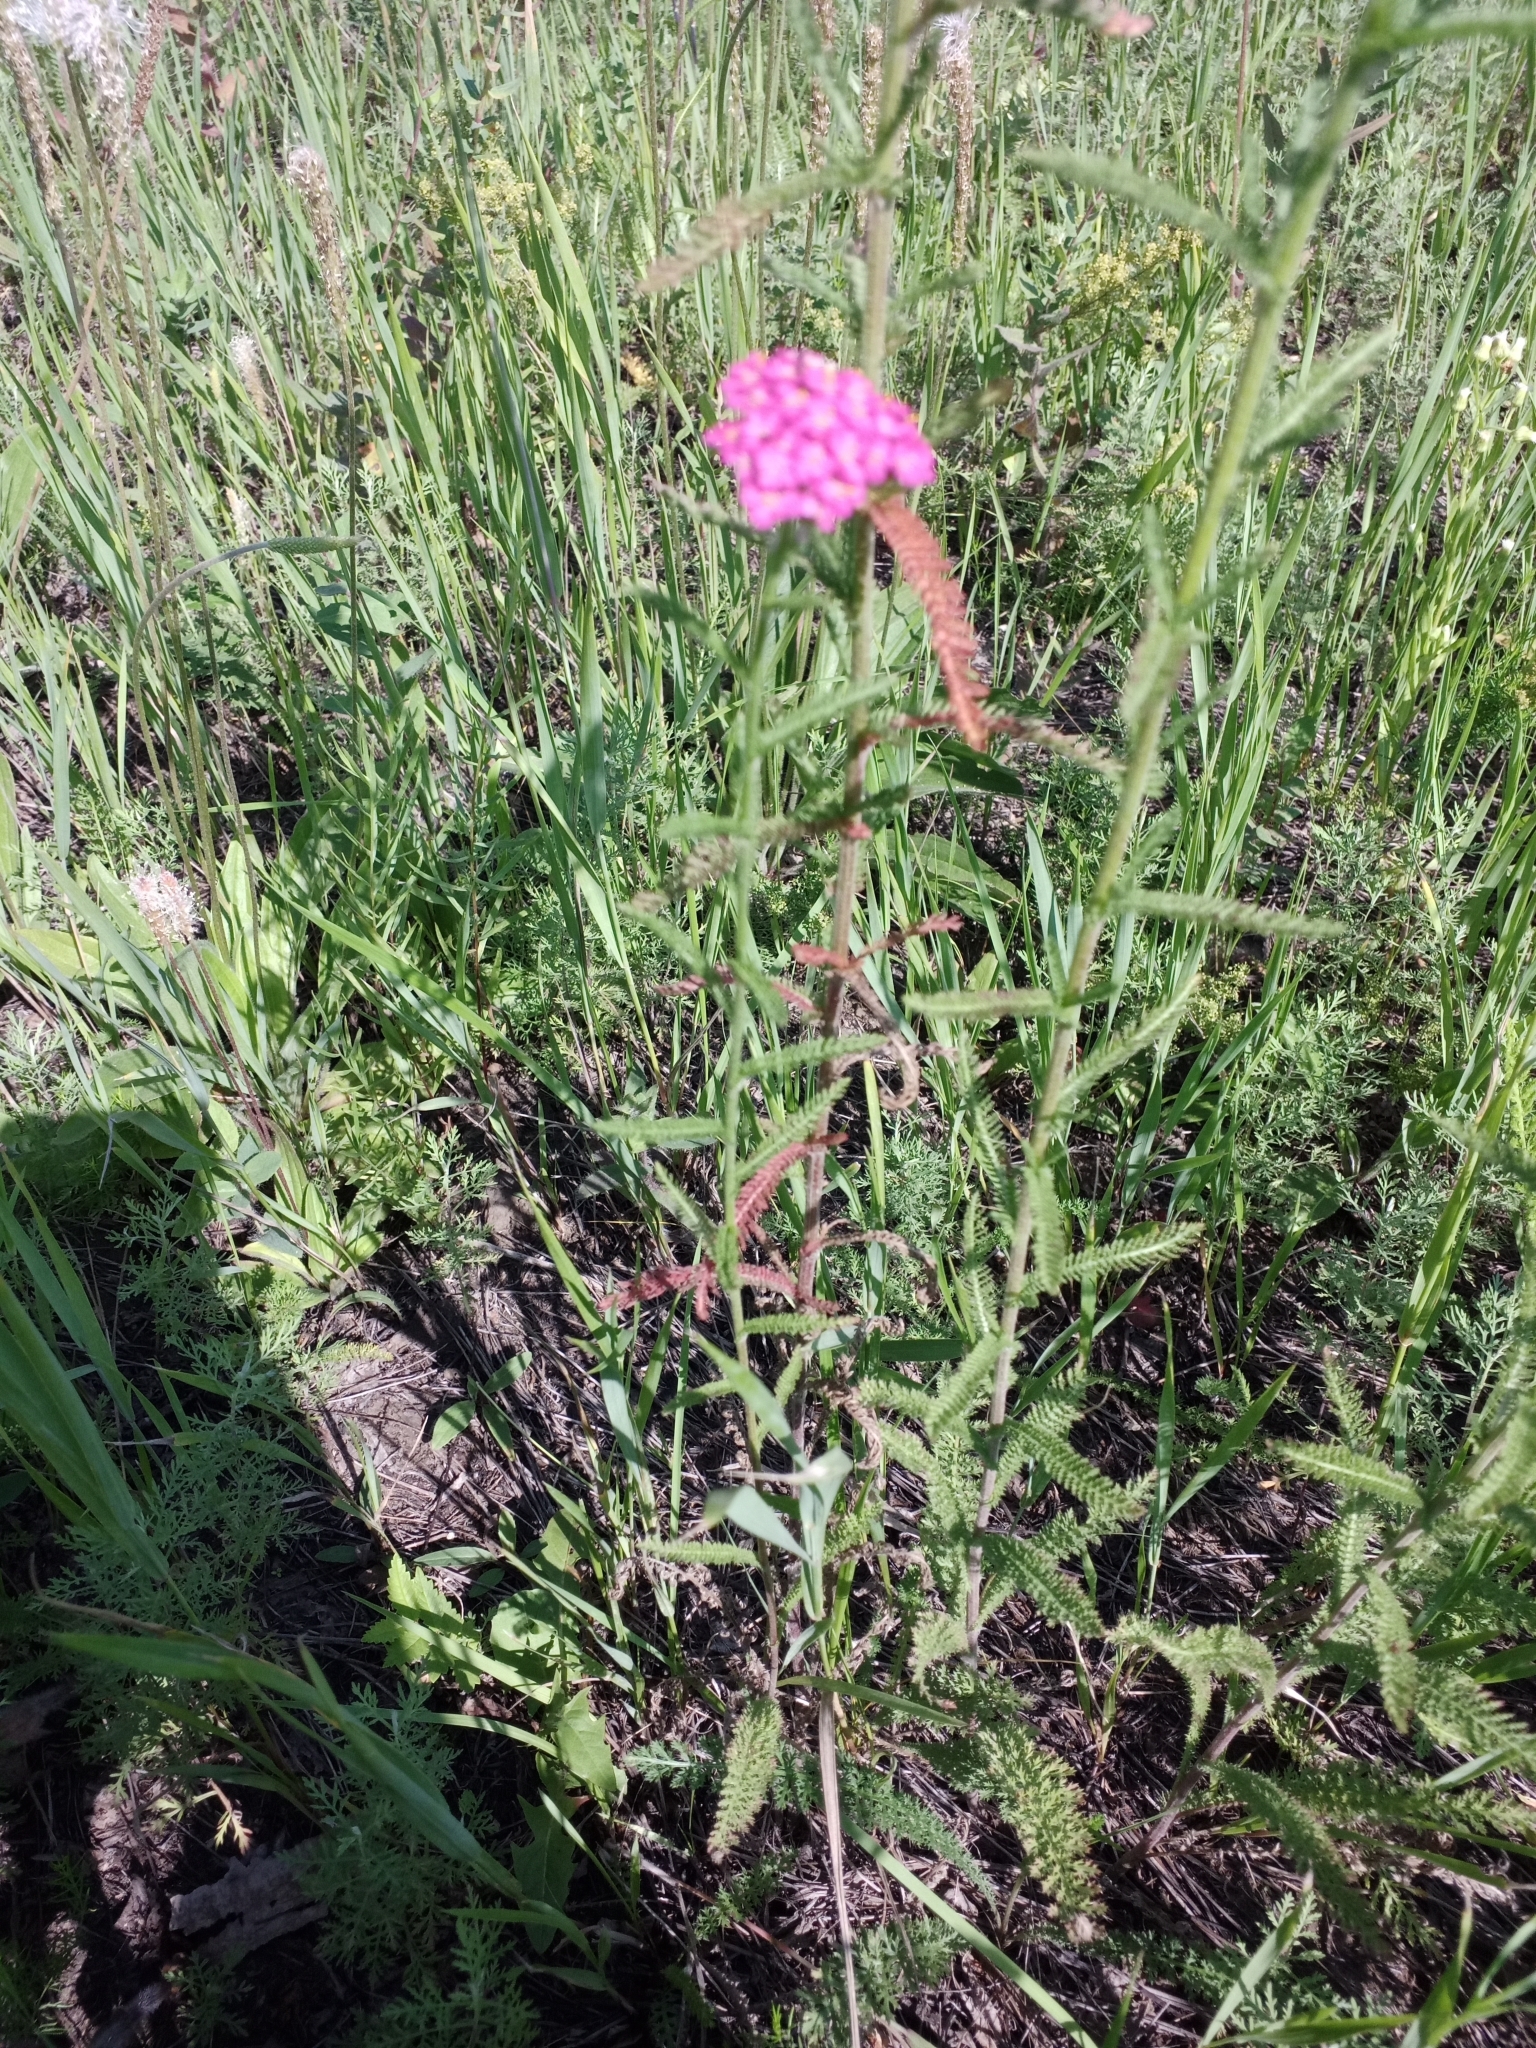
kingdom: Plantae
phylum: Tracheophyta
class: Magnoliopsida
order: Asterales
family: Asteraceae
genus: Achillea
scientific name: Achillea asiatica
